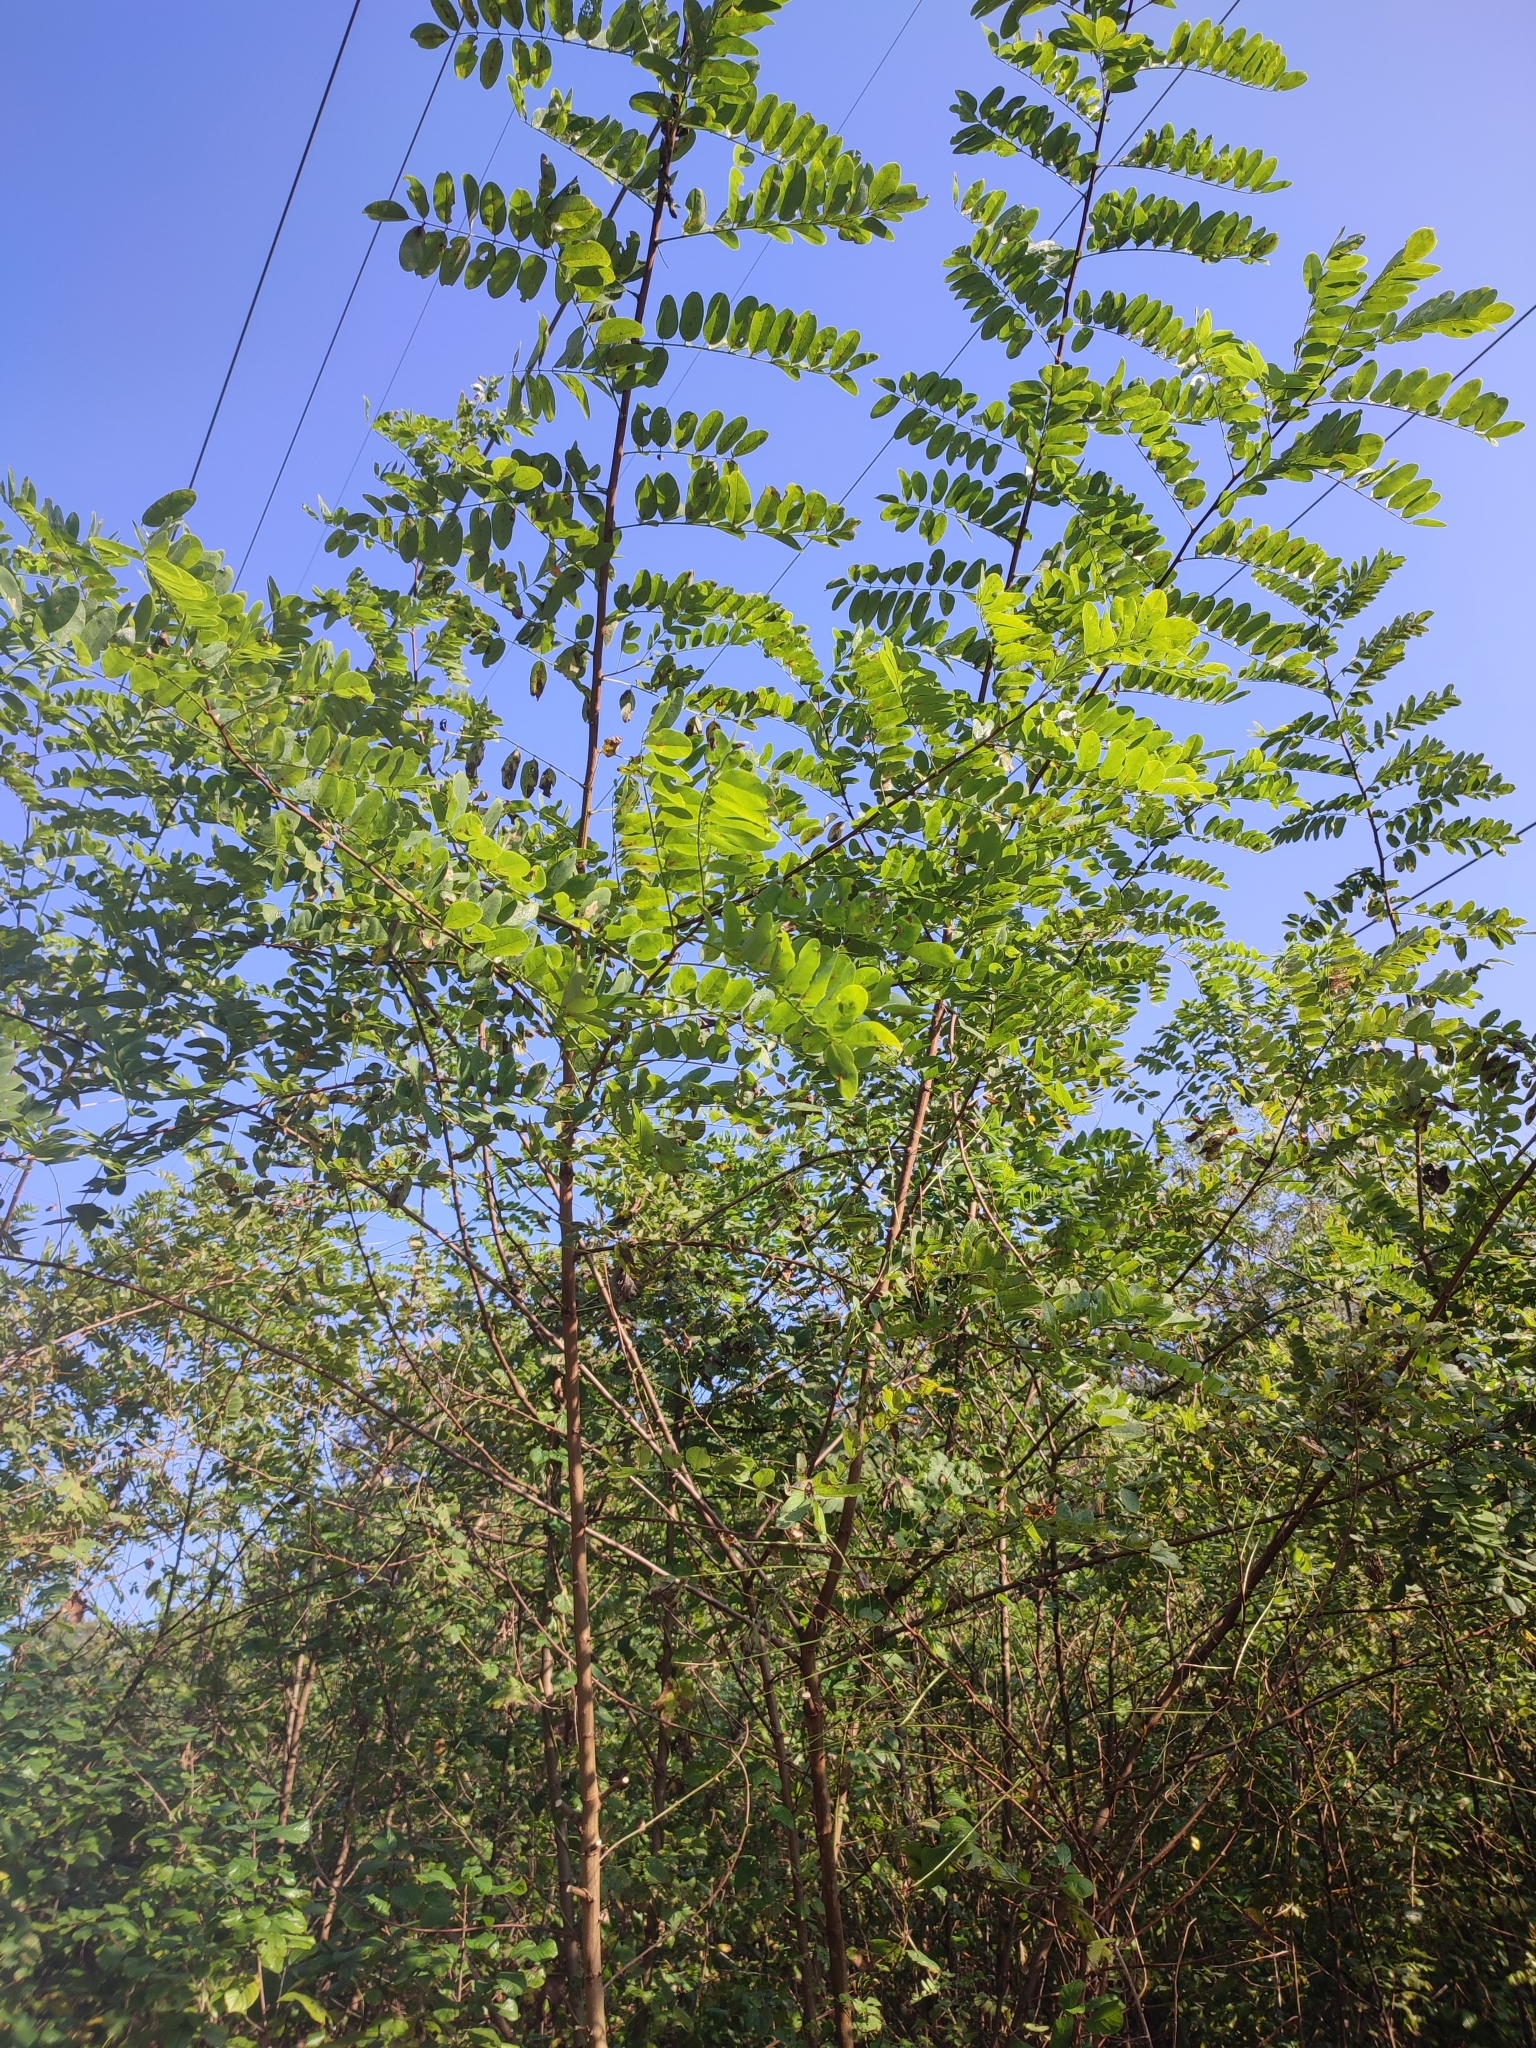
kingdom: Plantae
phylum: Tracheophyta
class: Magnoliopsida
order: Fabales
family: Fabaceae
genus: Robinia
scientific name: Robinia pseudoacacia
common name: Black locust
